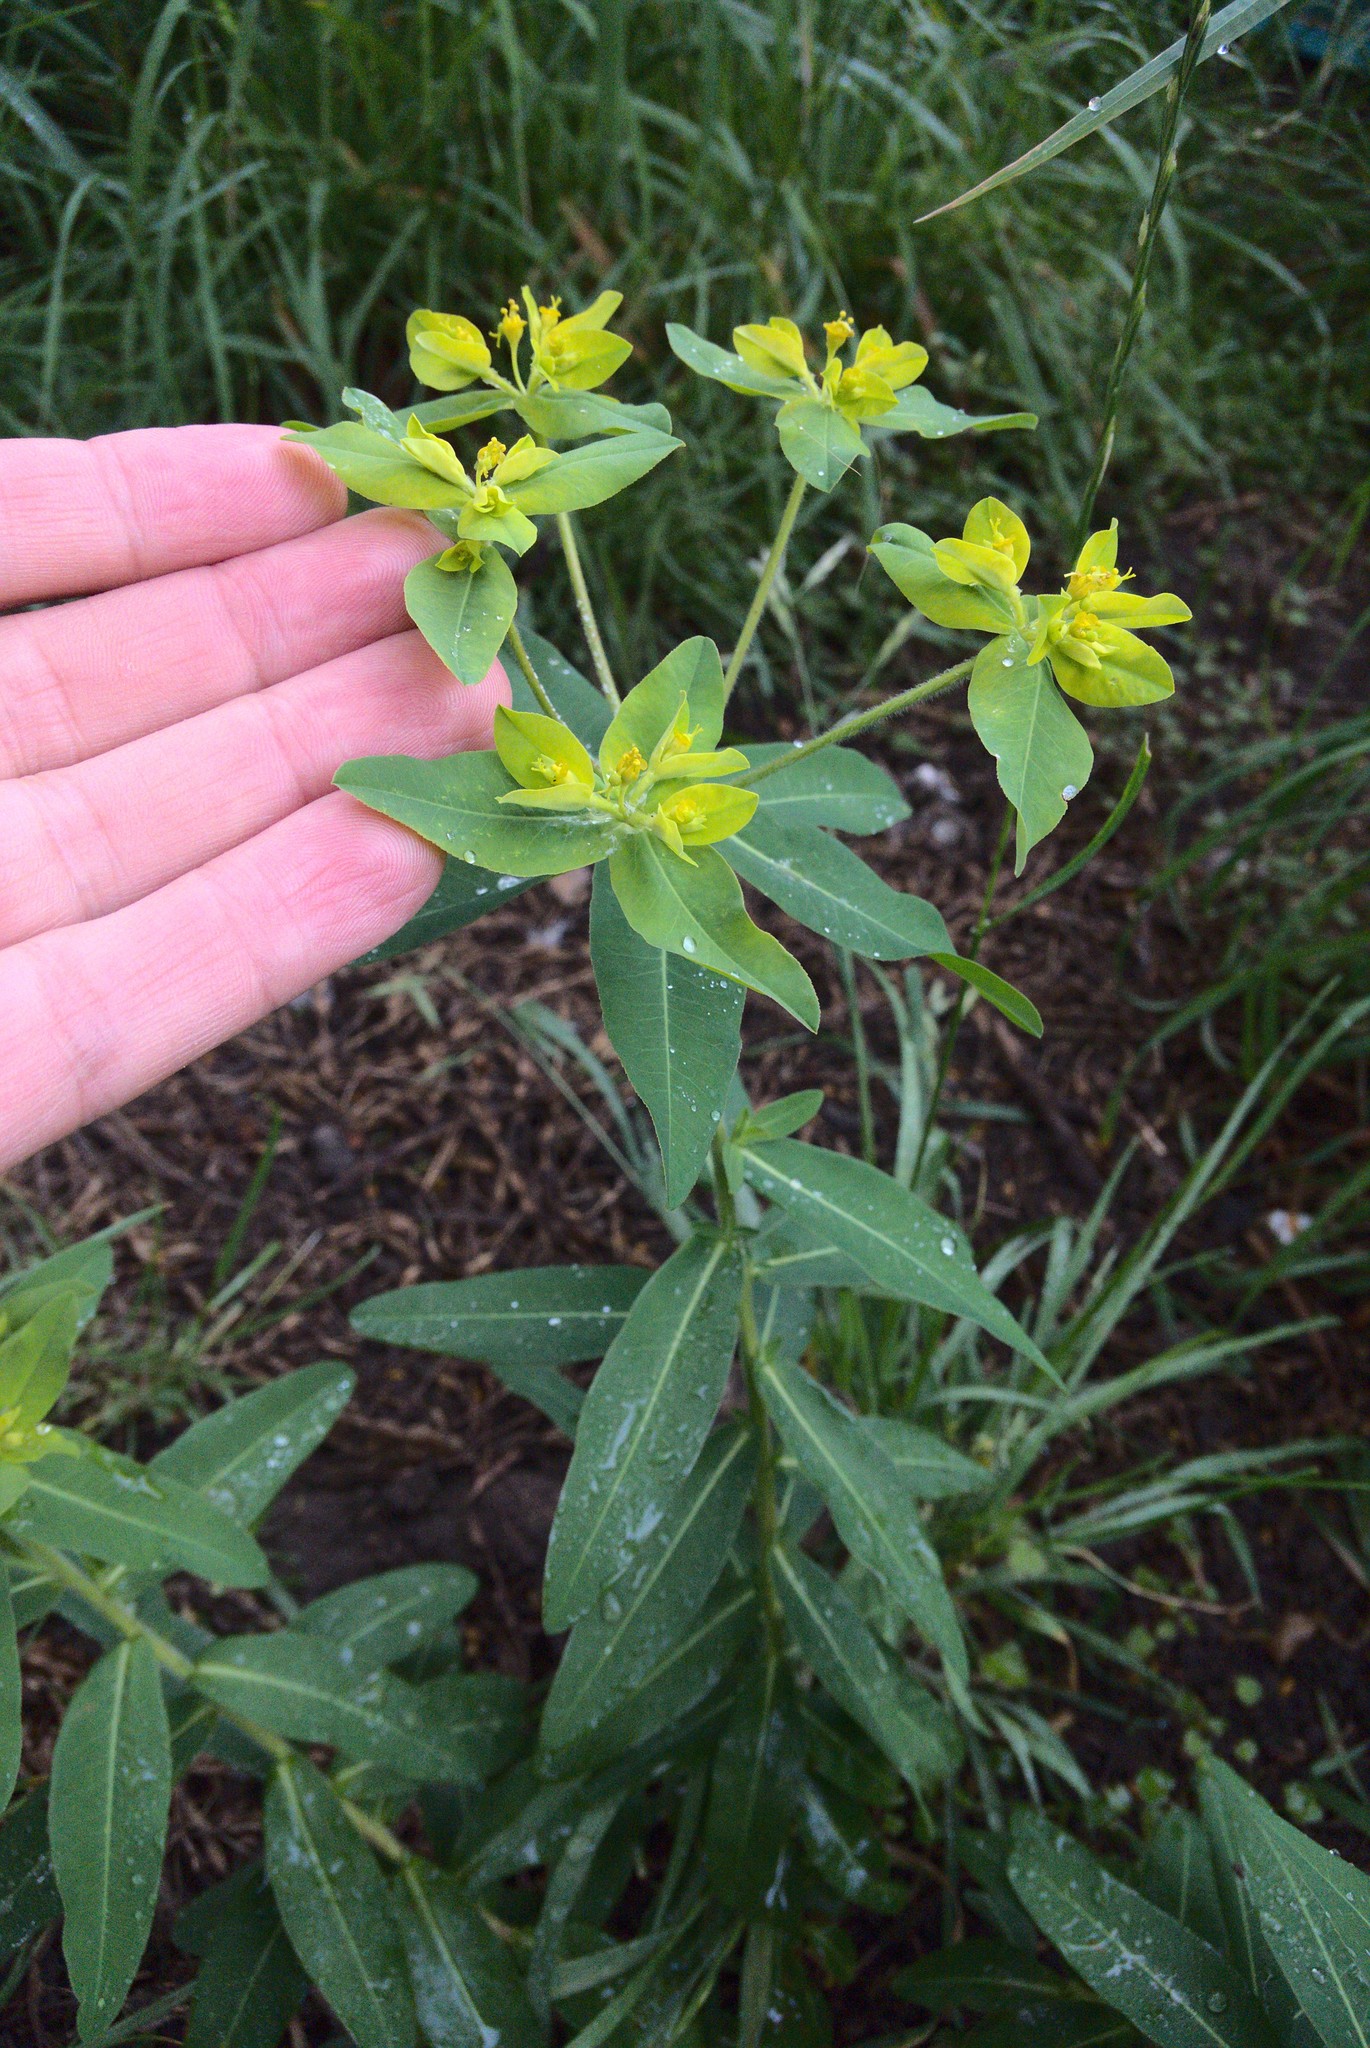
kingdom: Plantae
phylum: Tracheophyta
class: Magnoliopsida
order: Malpighiales
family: Euphorbiaceae
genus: Euphorbia
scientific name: Euphorbia oblongata
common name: Balkan spurge
